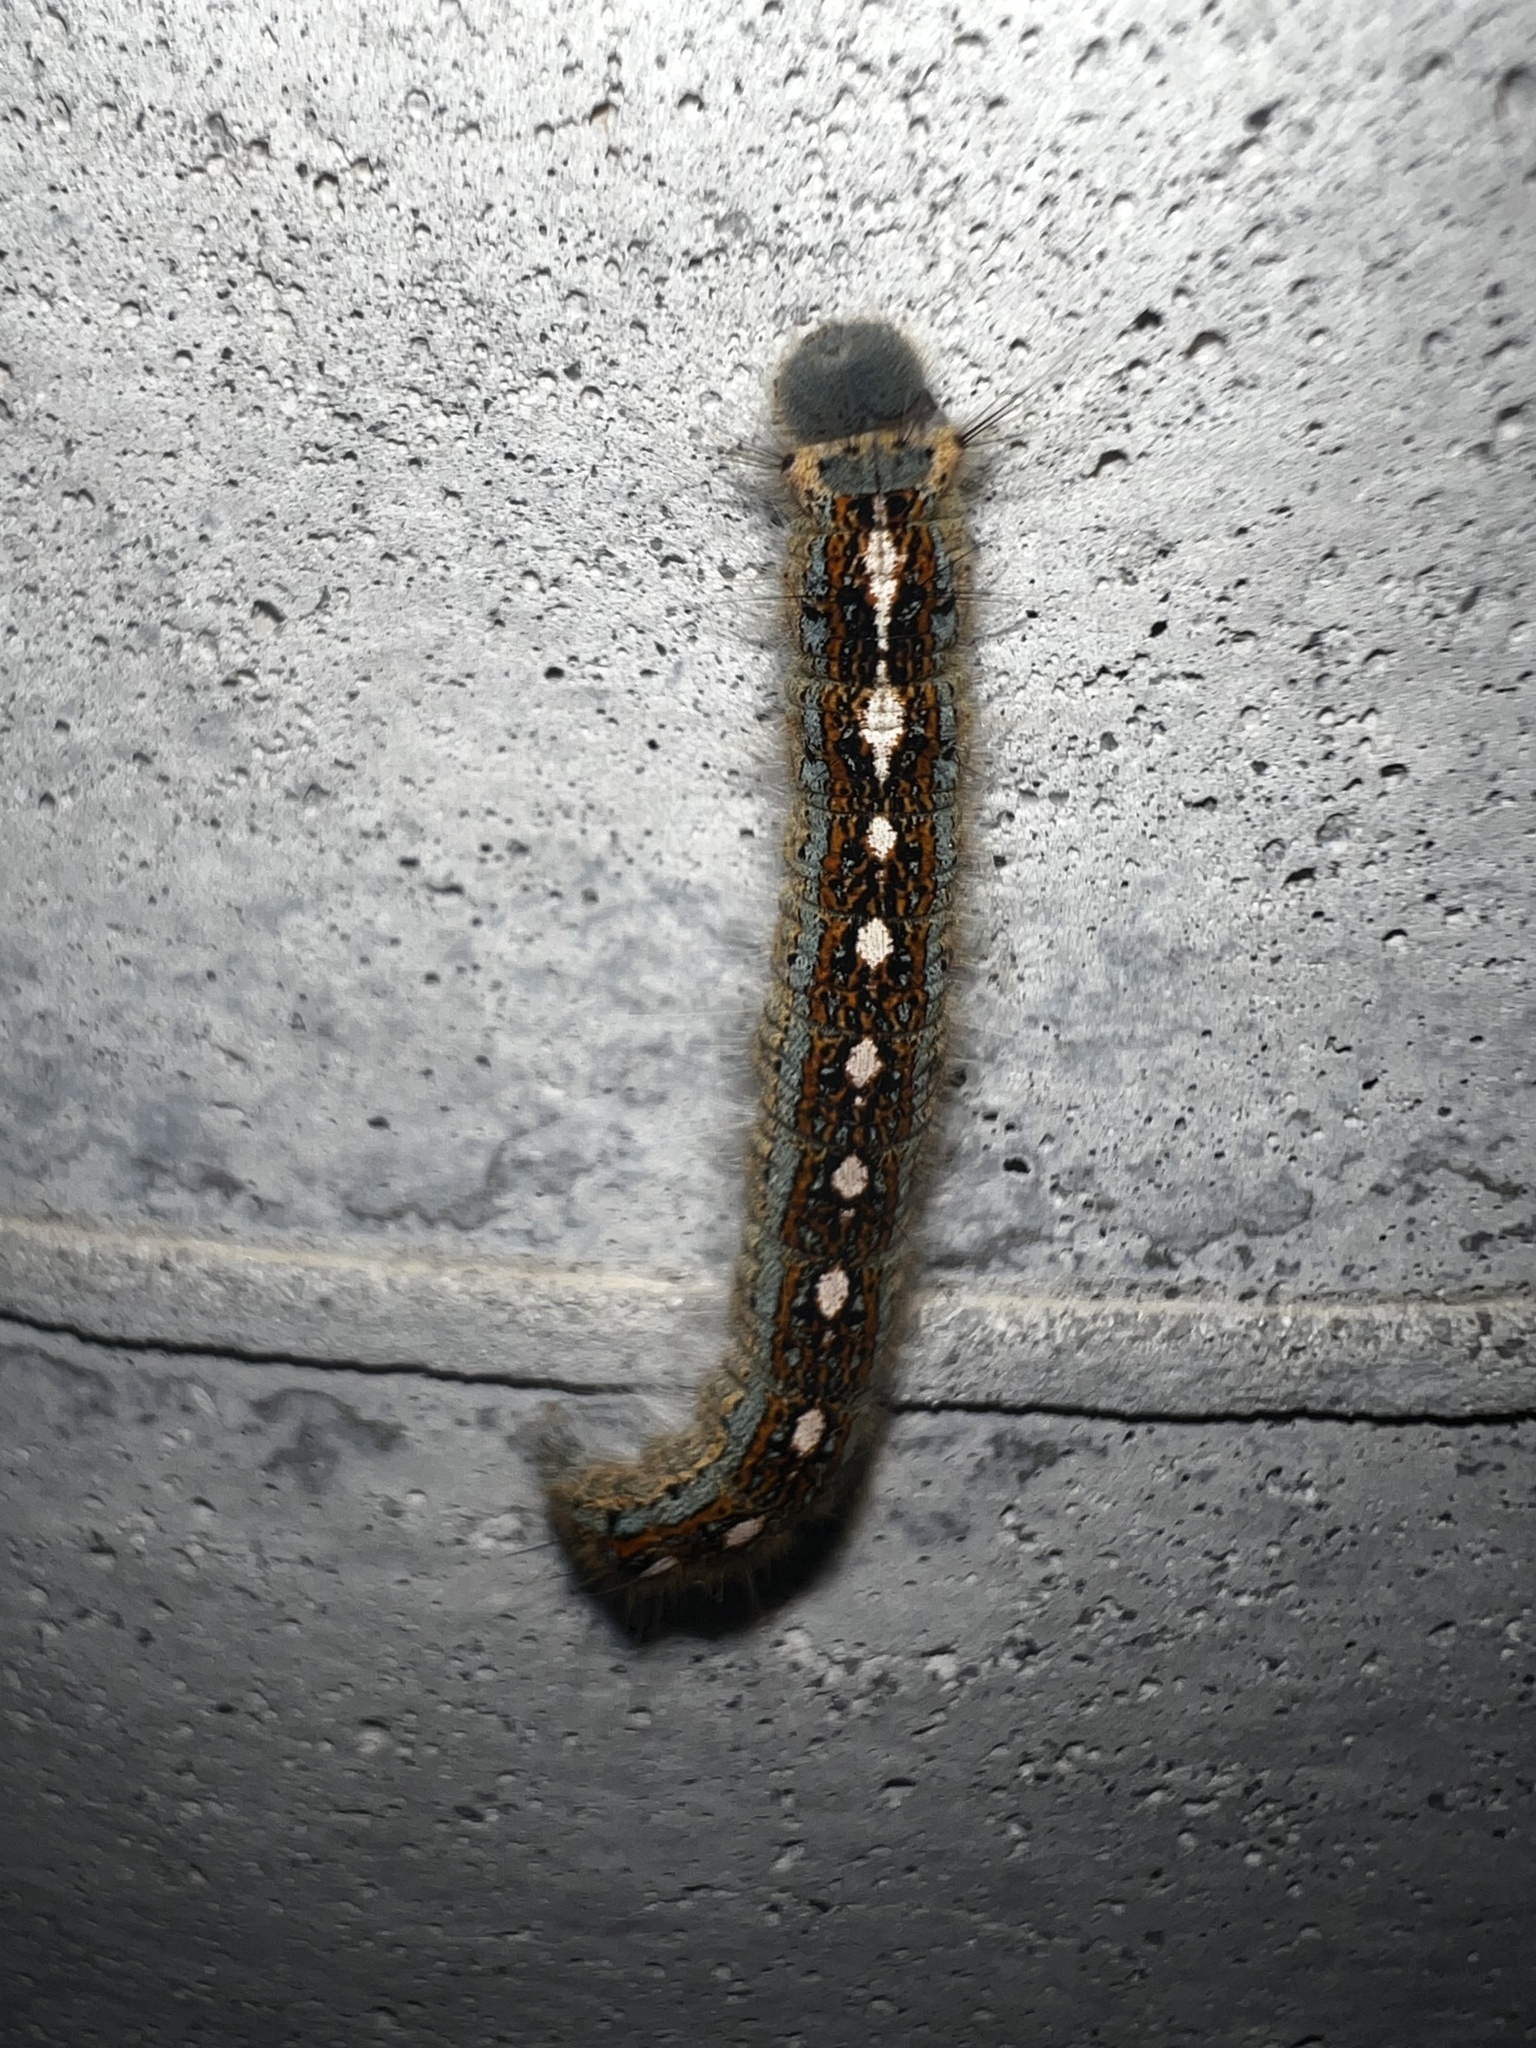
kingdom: Animalia
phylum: Arthropoda
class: Insecta
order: Lepidoptera
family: Lasiocampidae
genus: Malacosoma
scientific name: Malacosoma disstria
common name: Forest tent caterpillar
